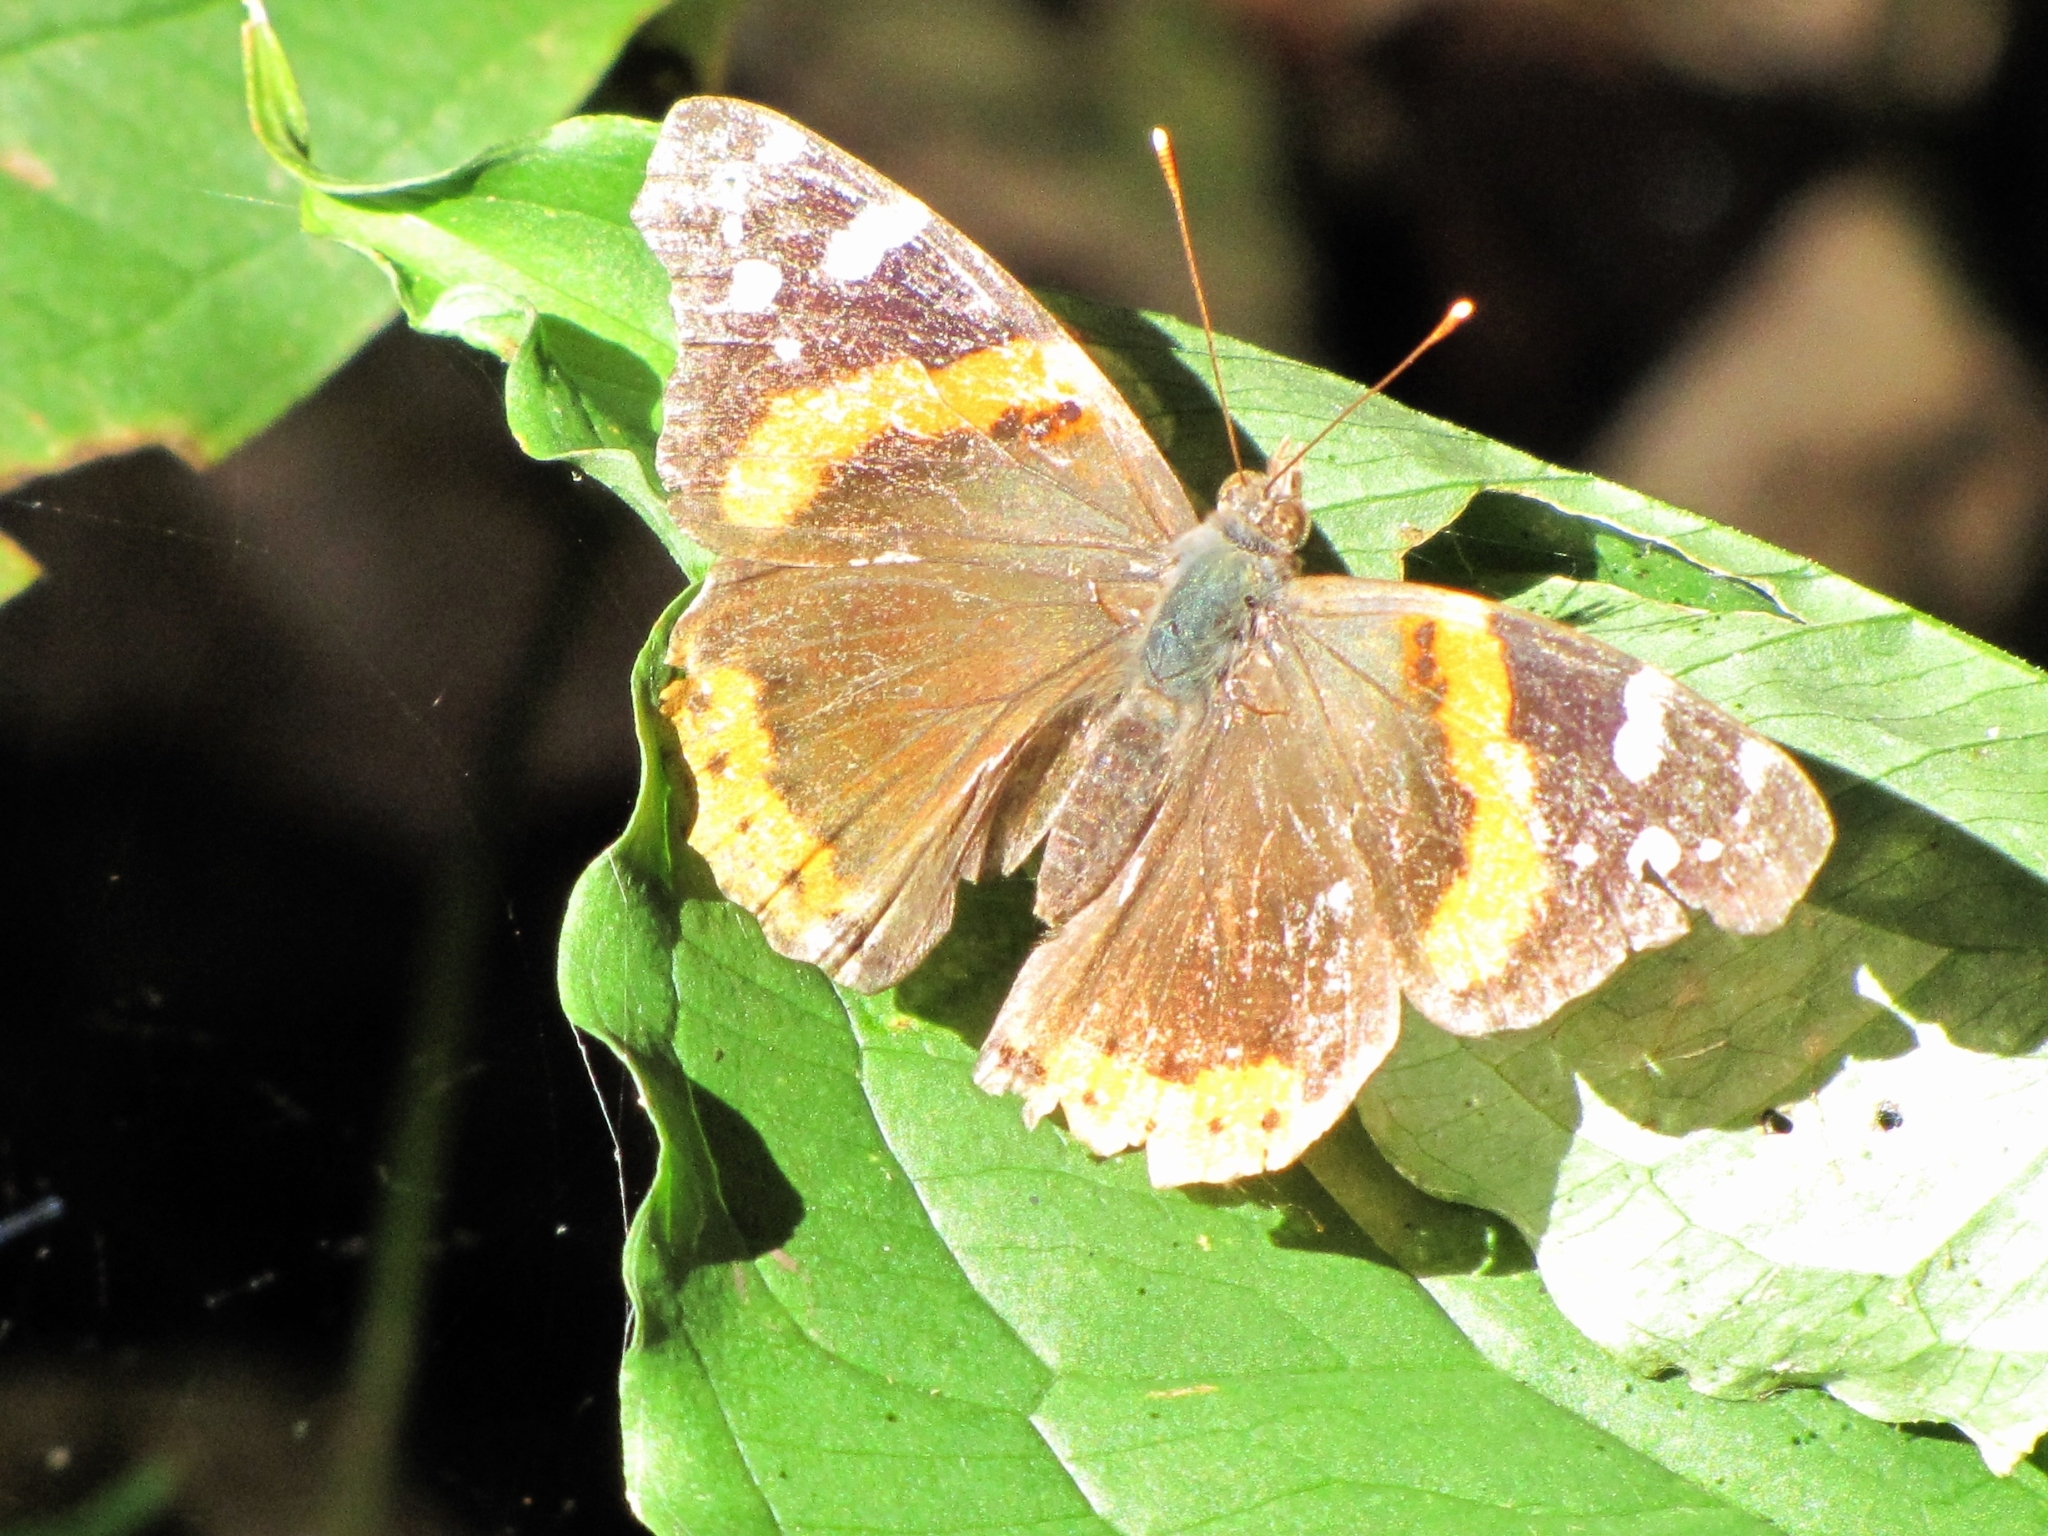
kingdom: Animalia
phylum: Arthropoda
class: Insecta
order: Lepidoptera
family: Nymphalidae
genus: Vanessa
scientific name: Vanessa atalanta
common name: Red admiral
